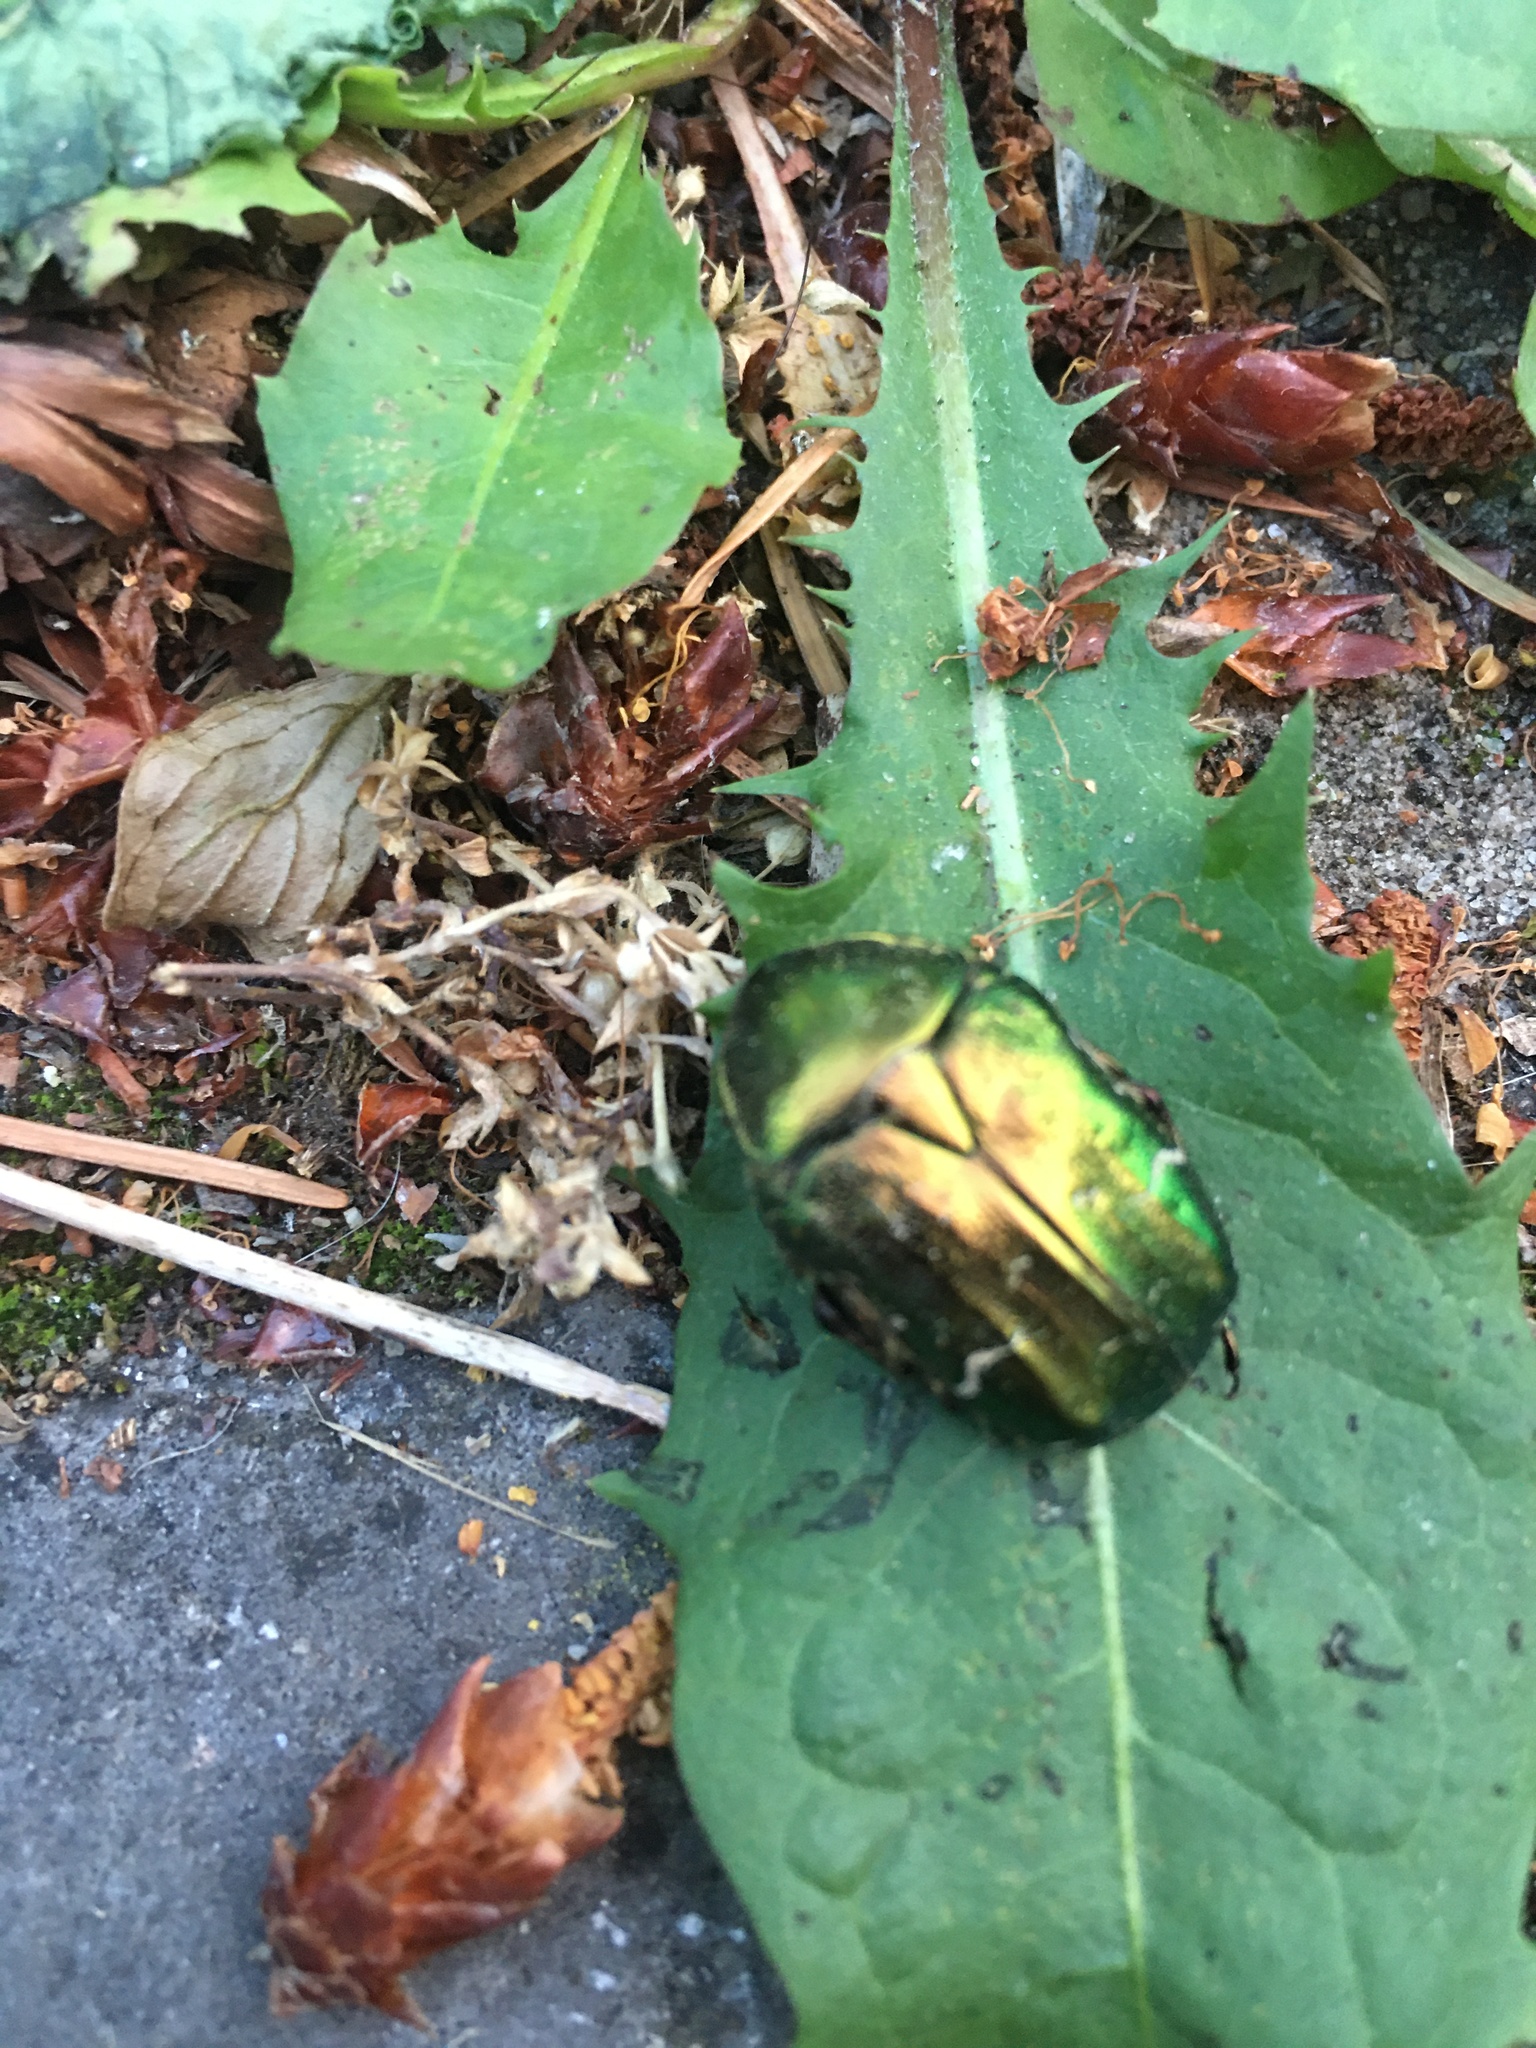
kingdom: Animalia
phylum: Arthropoda
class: Insecta
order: Coleoptera
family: Scarabaeidae
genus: Cetonia
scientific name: Cetonia aurata
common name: Rose chafer
